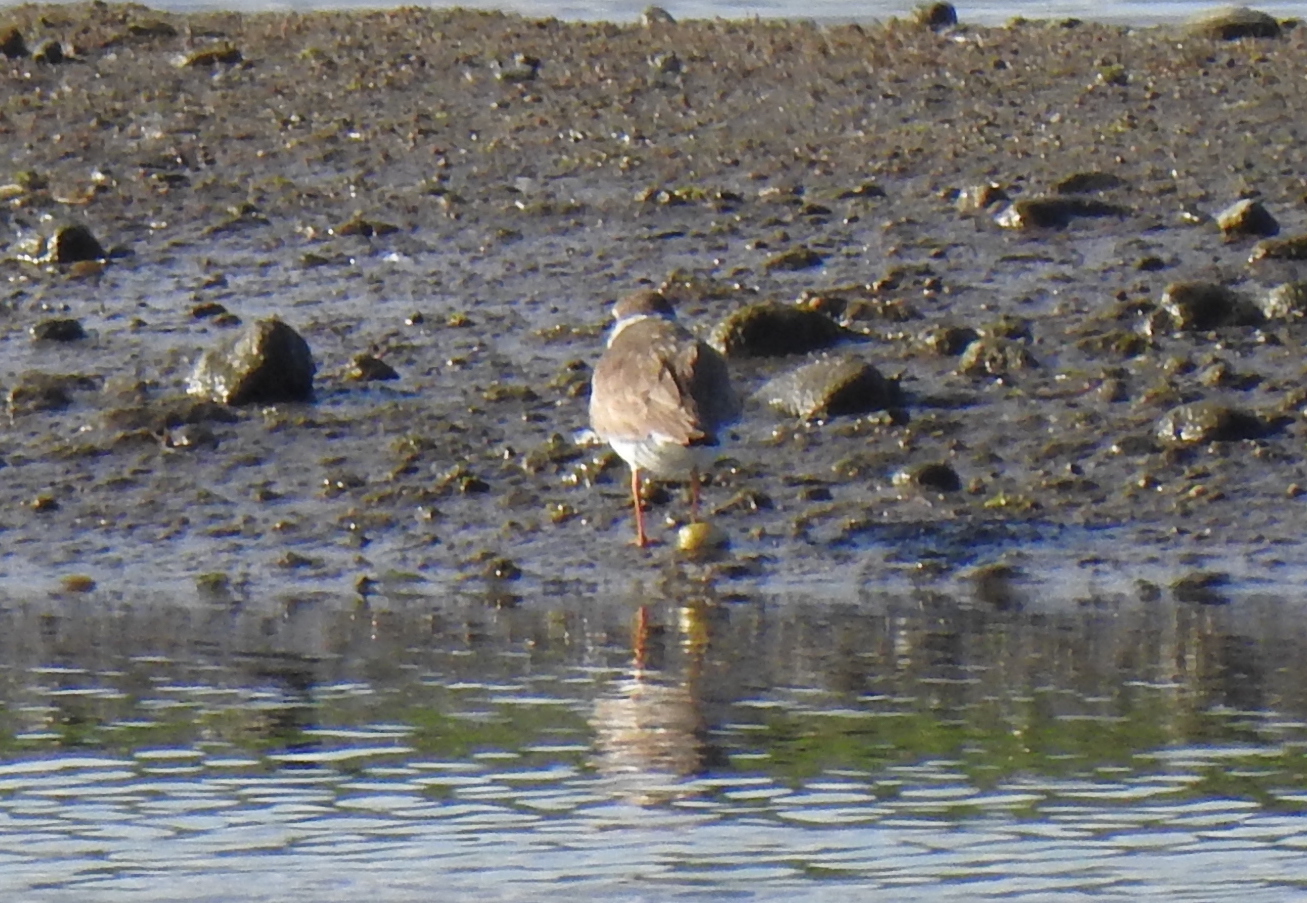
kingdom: Animalia
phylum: Chordata
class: Aves
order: Charadriiformes
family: Charadriidae
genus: Charadrius
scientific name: Charadrius semipalmatus
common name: Semipalmated plover
